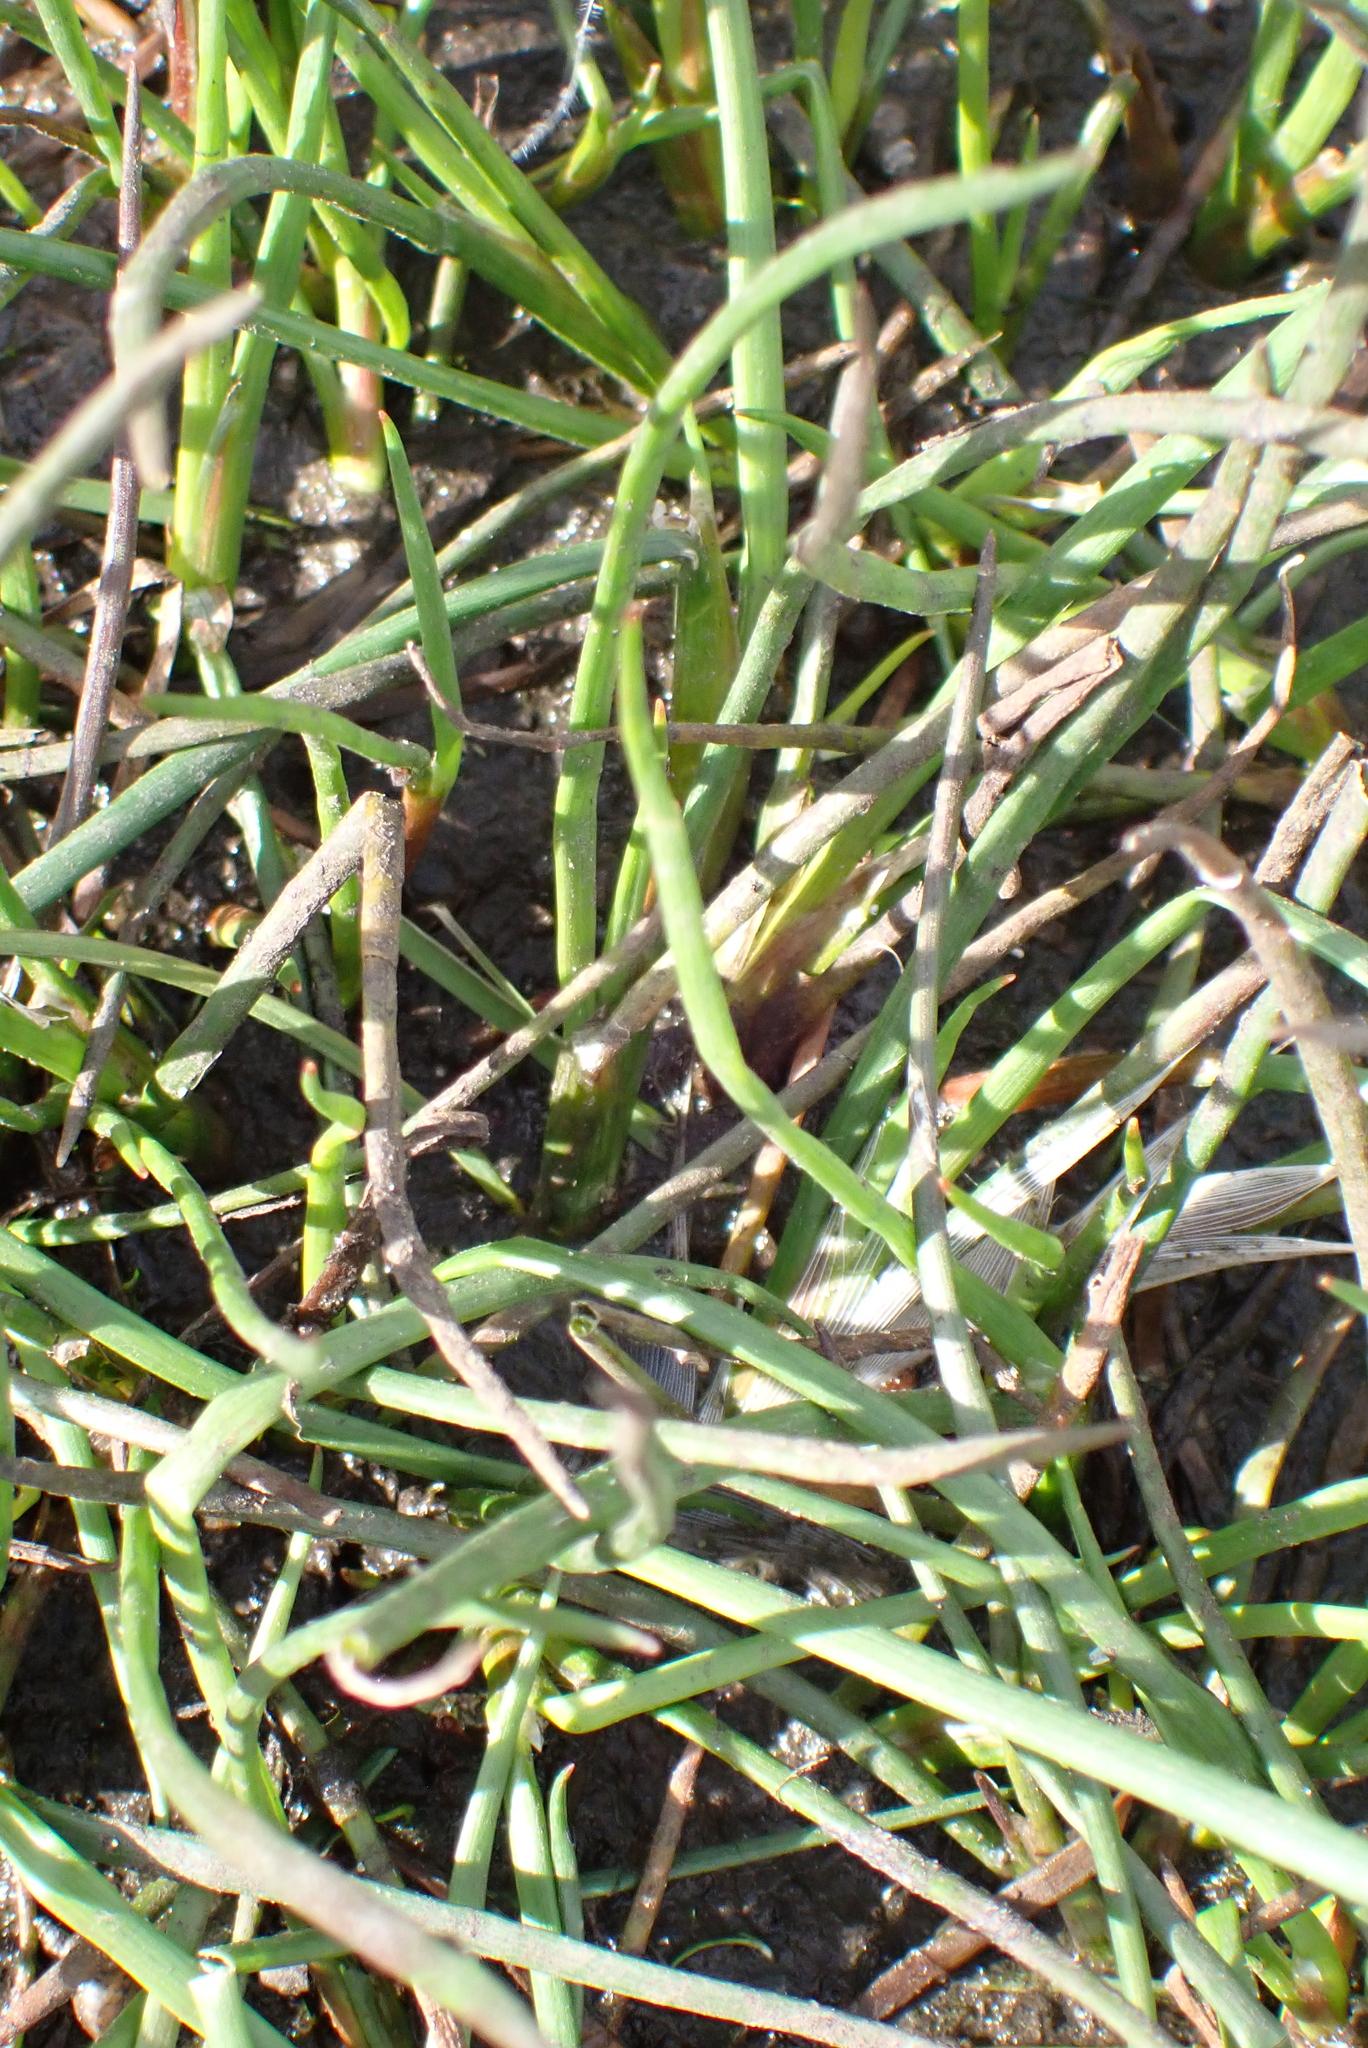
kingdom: Plantae
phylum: Tracheophyta
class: Liliopsida
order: Poales
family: Juncaceae
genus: Juncus
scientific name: Juncus articulatus
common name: Jointed rush
